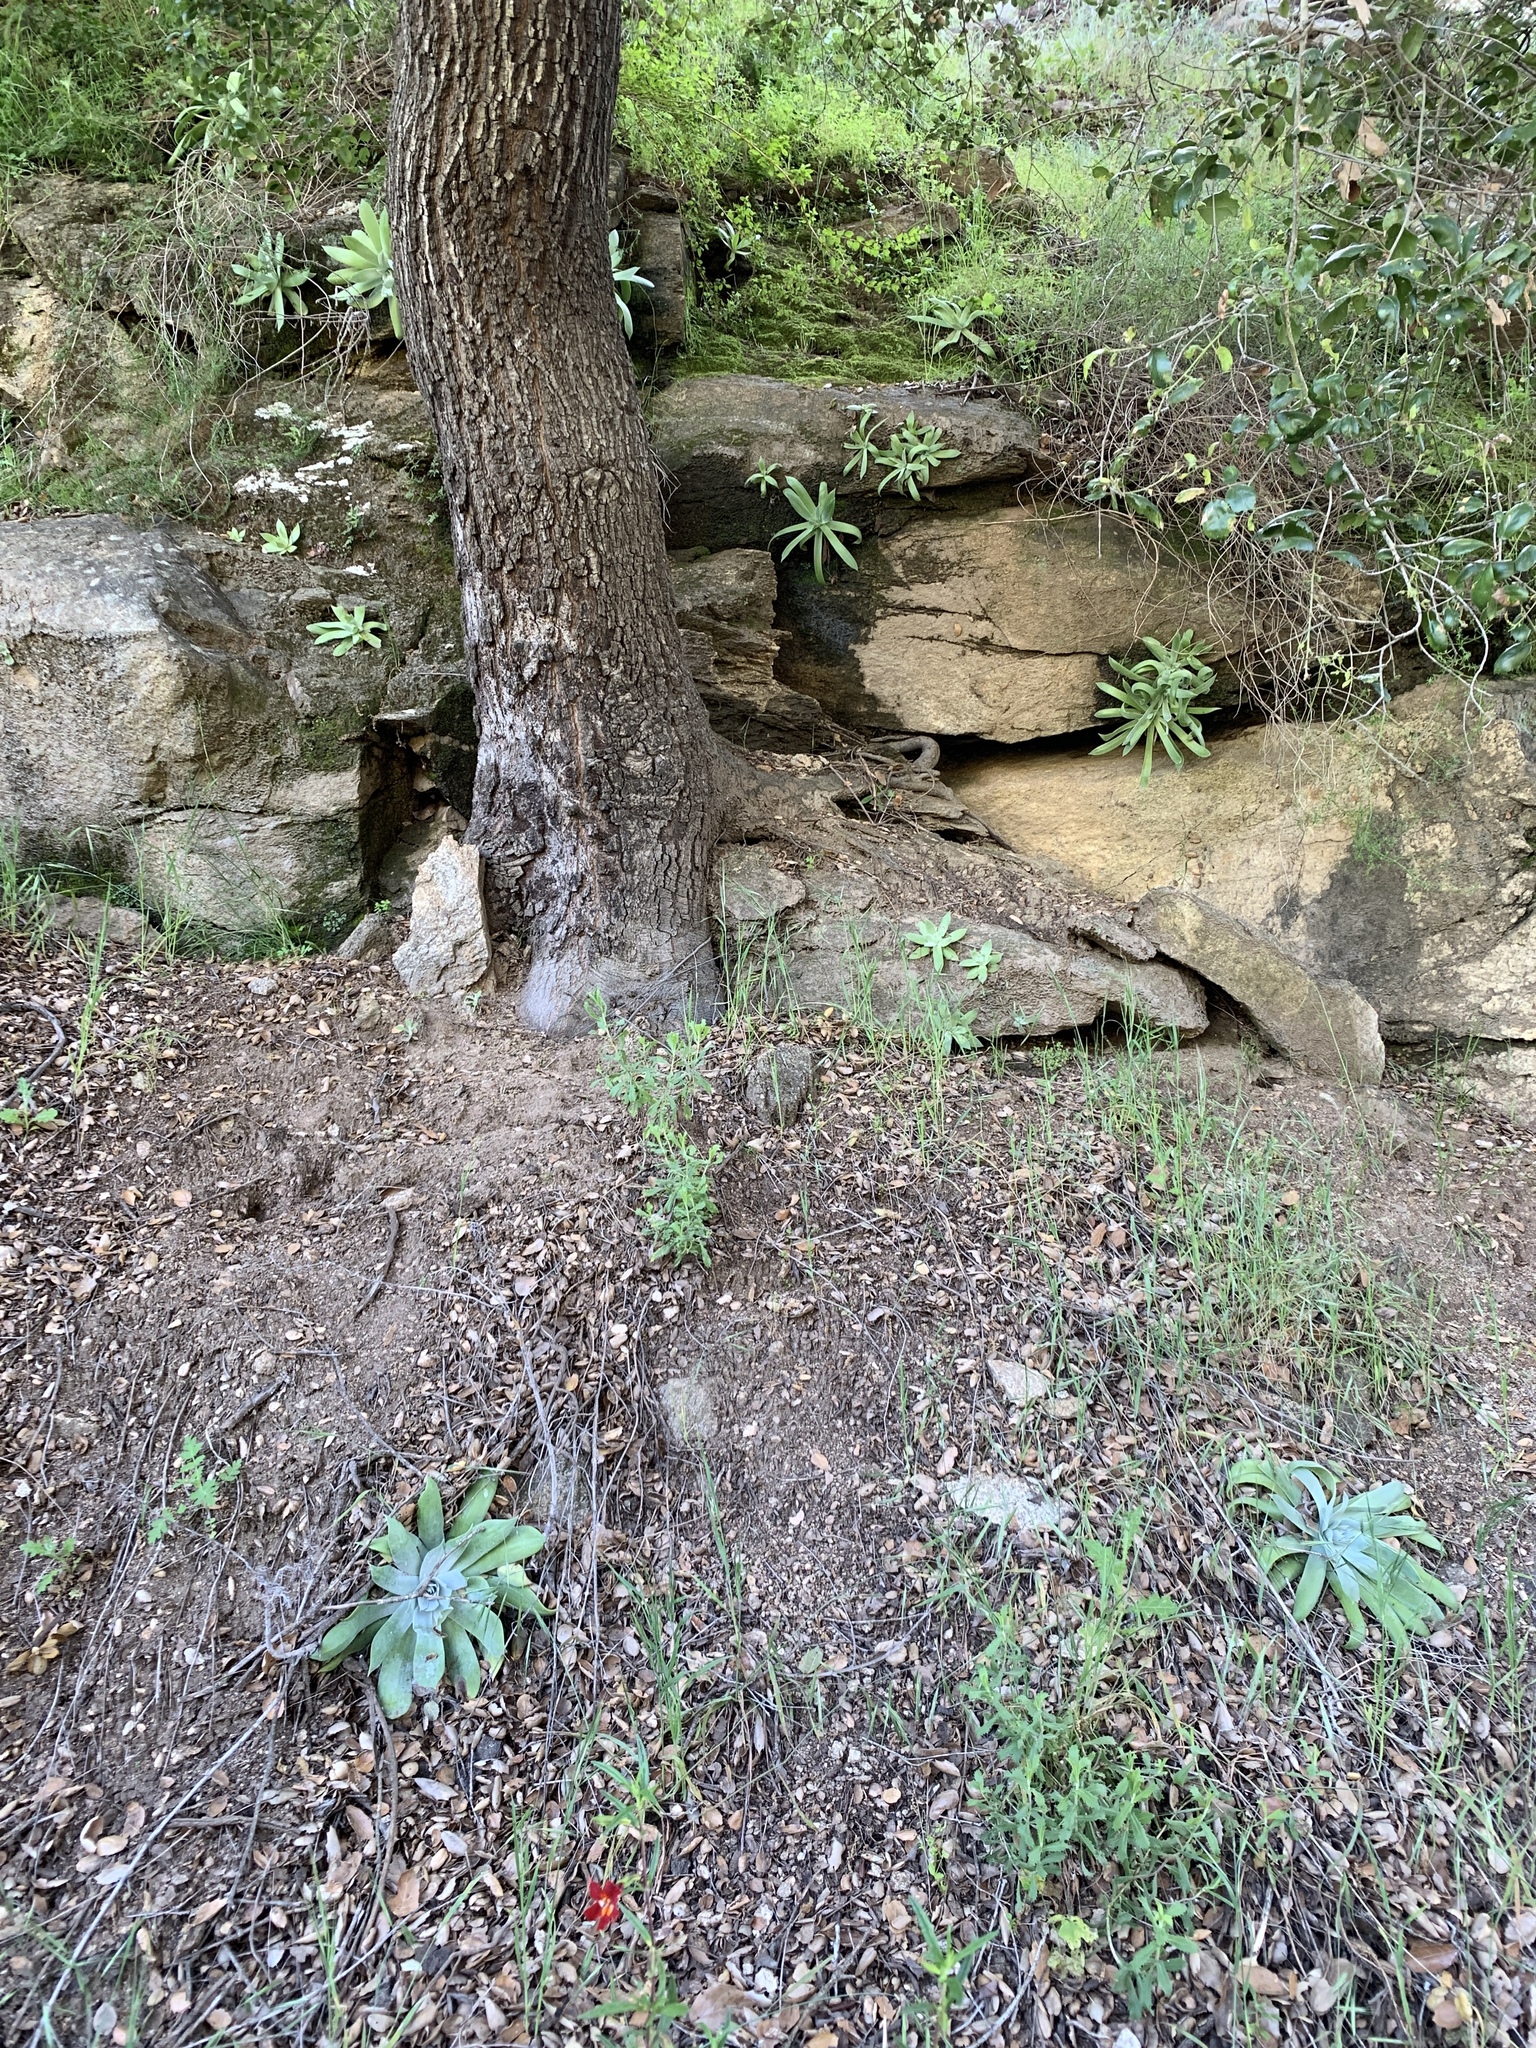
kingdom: Plantae
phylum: Tracheophyta
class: Magnoliopsida
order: Saxifragales
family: Crassulaceae
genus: Dudleya
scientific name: Dudleya pulverulenta
